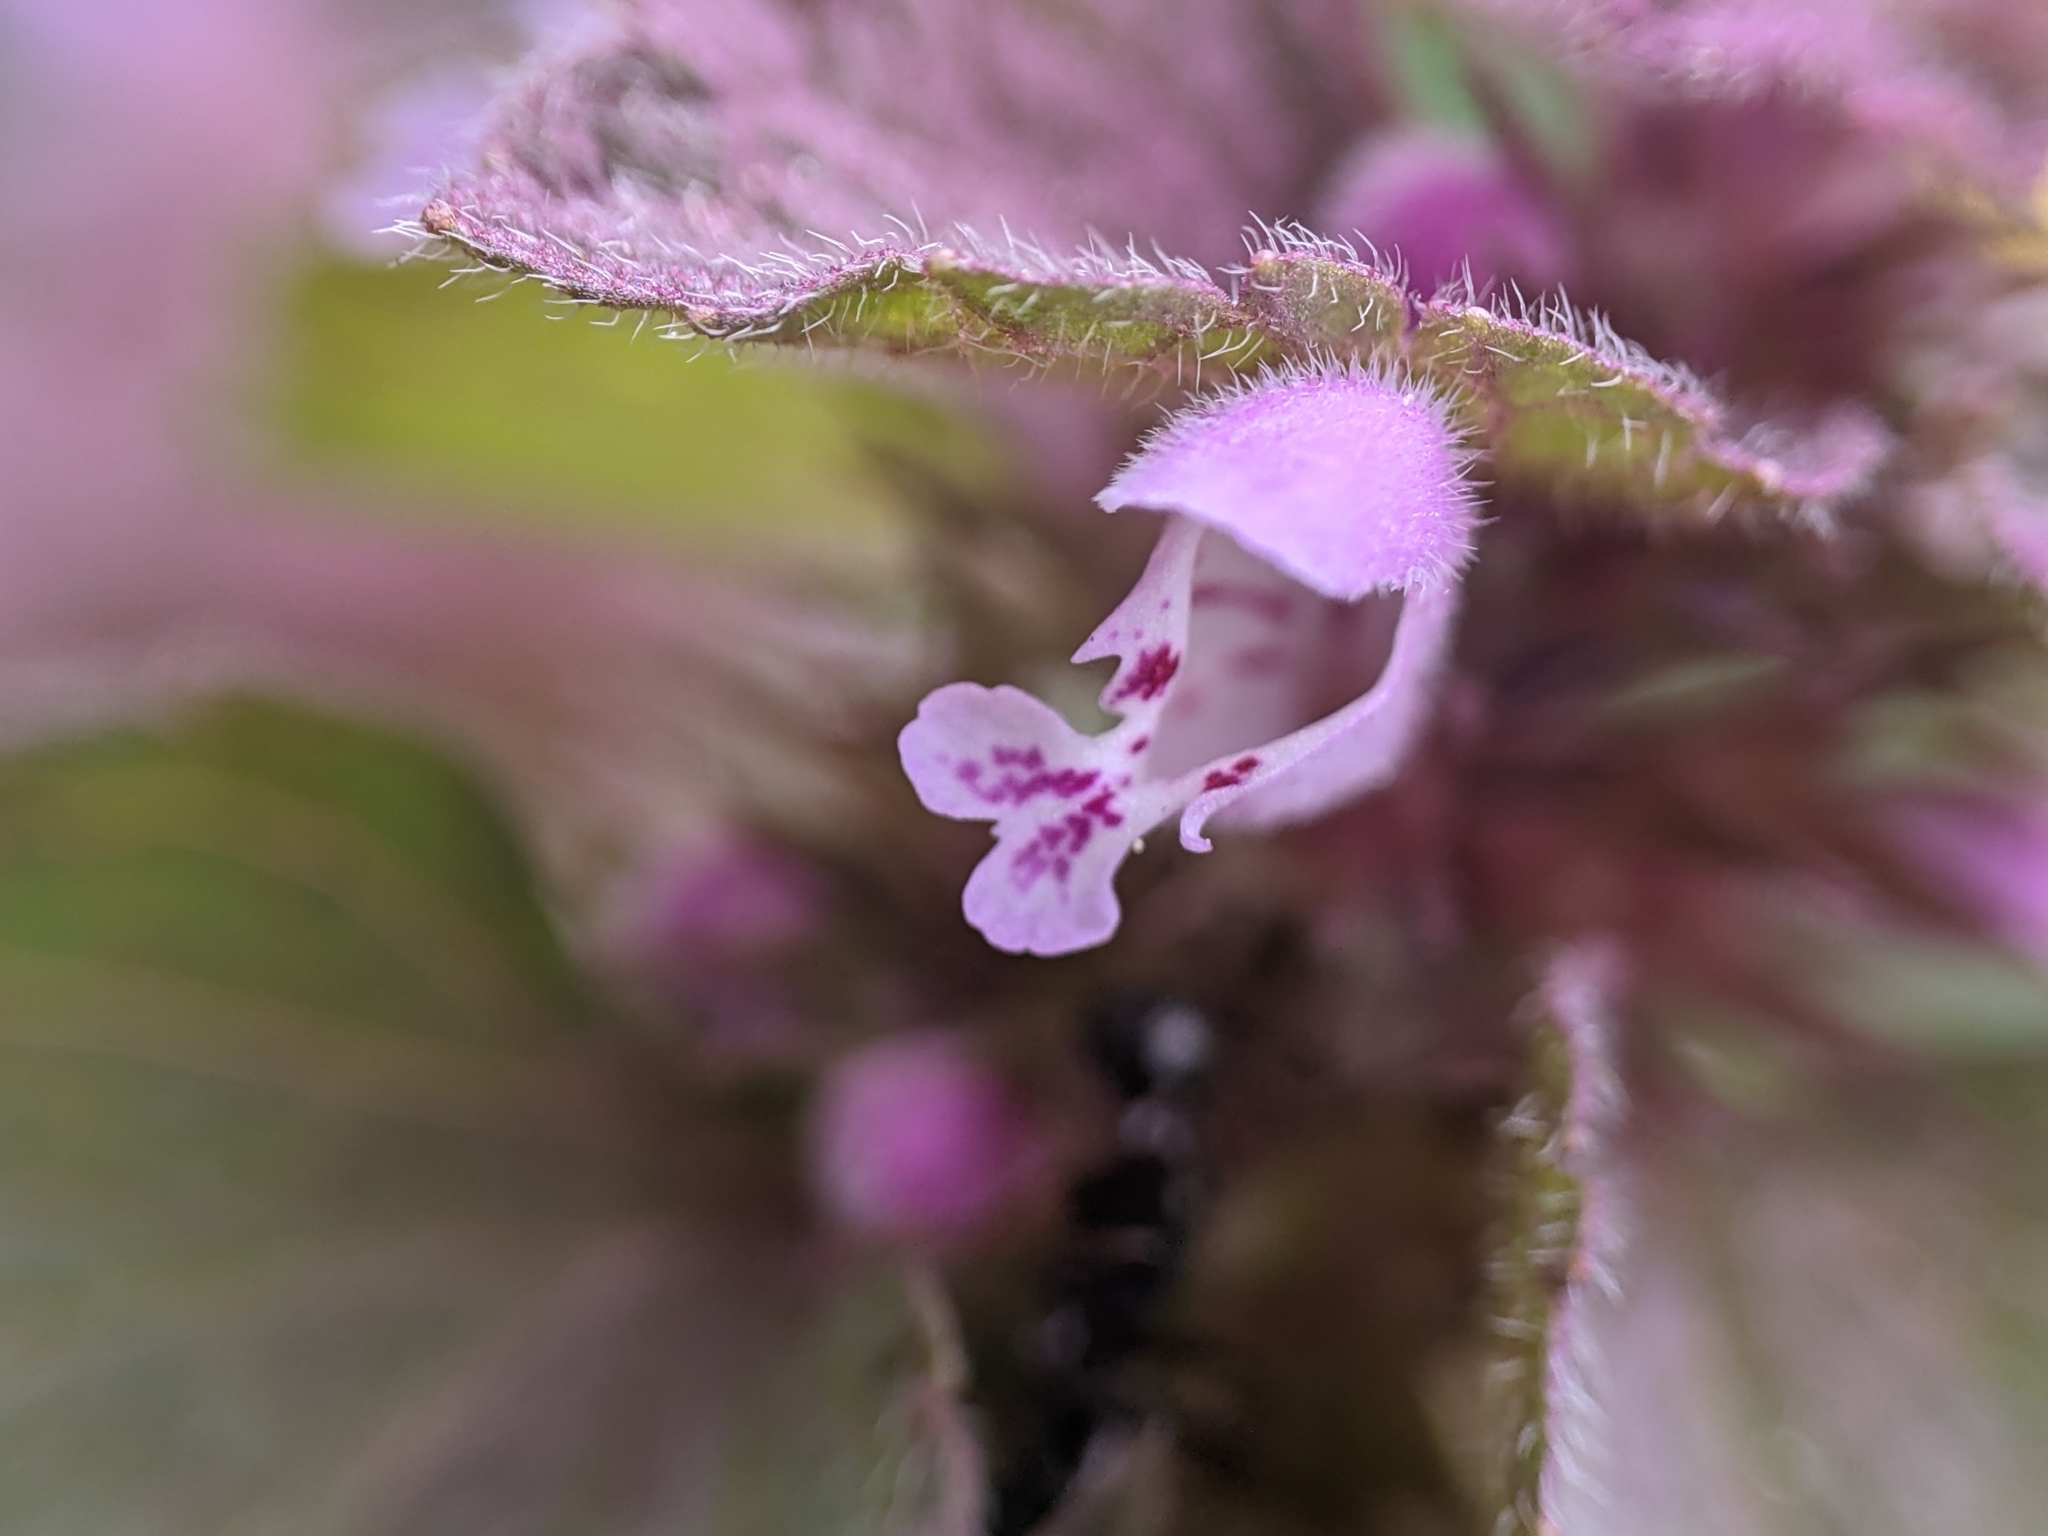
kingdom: Plantae
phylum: Tracheophyta
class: Magnoliopsida
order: Lamiales
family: Lamiaceae
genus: Lamium
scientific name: Lamium purpureum
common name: Red dead-nettle
